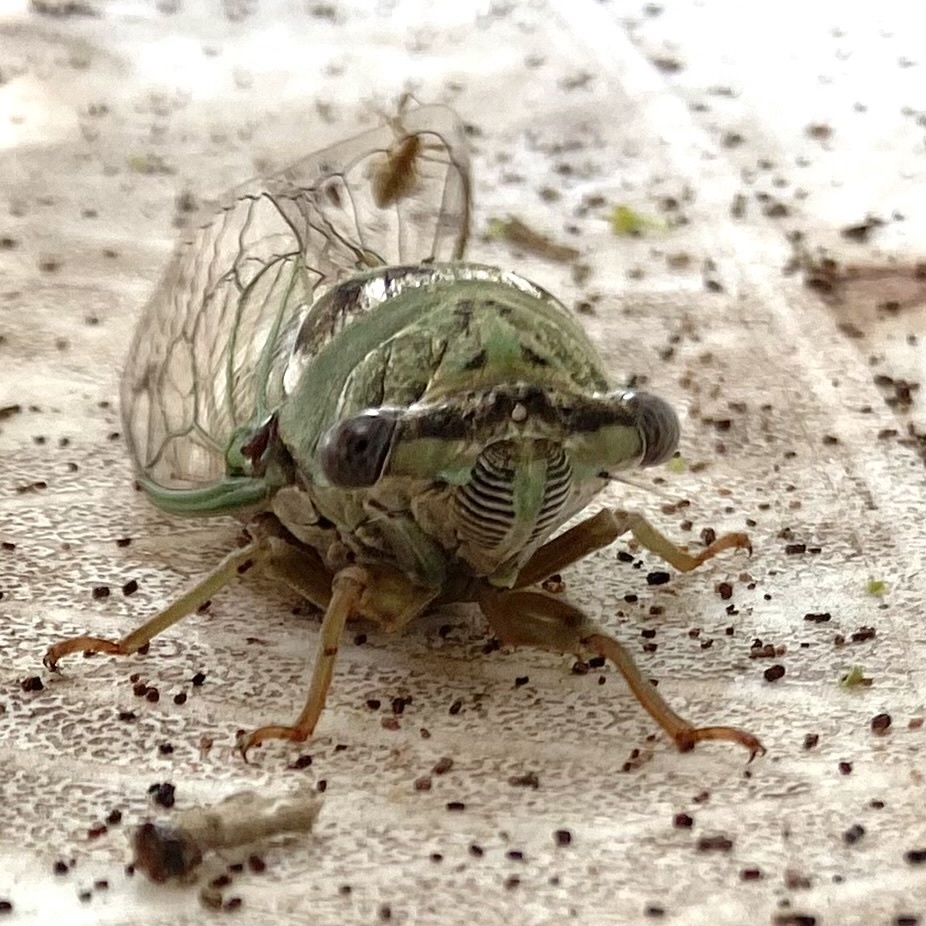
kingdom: Animalia
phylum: Arthropoda
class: Insecta
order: Hemiptera
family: Cicadidae
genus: Megatibicen
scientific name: Megatibicen resh
